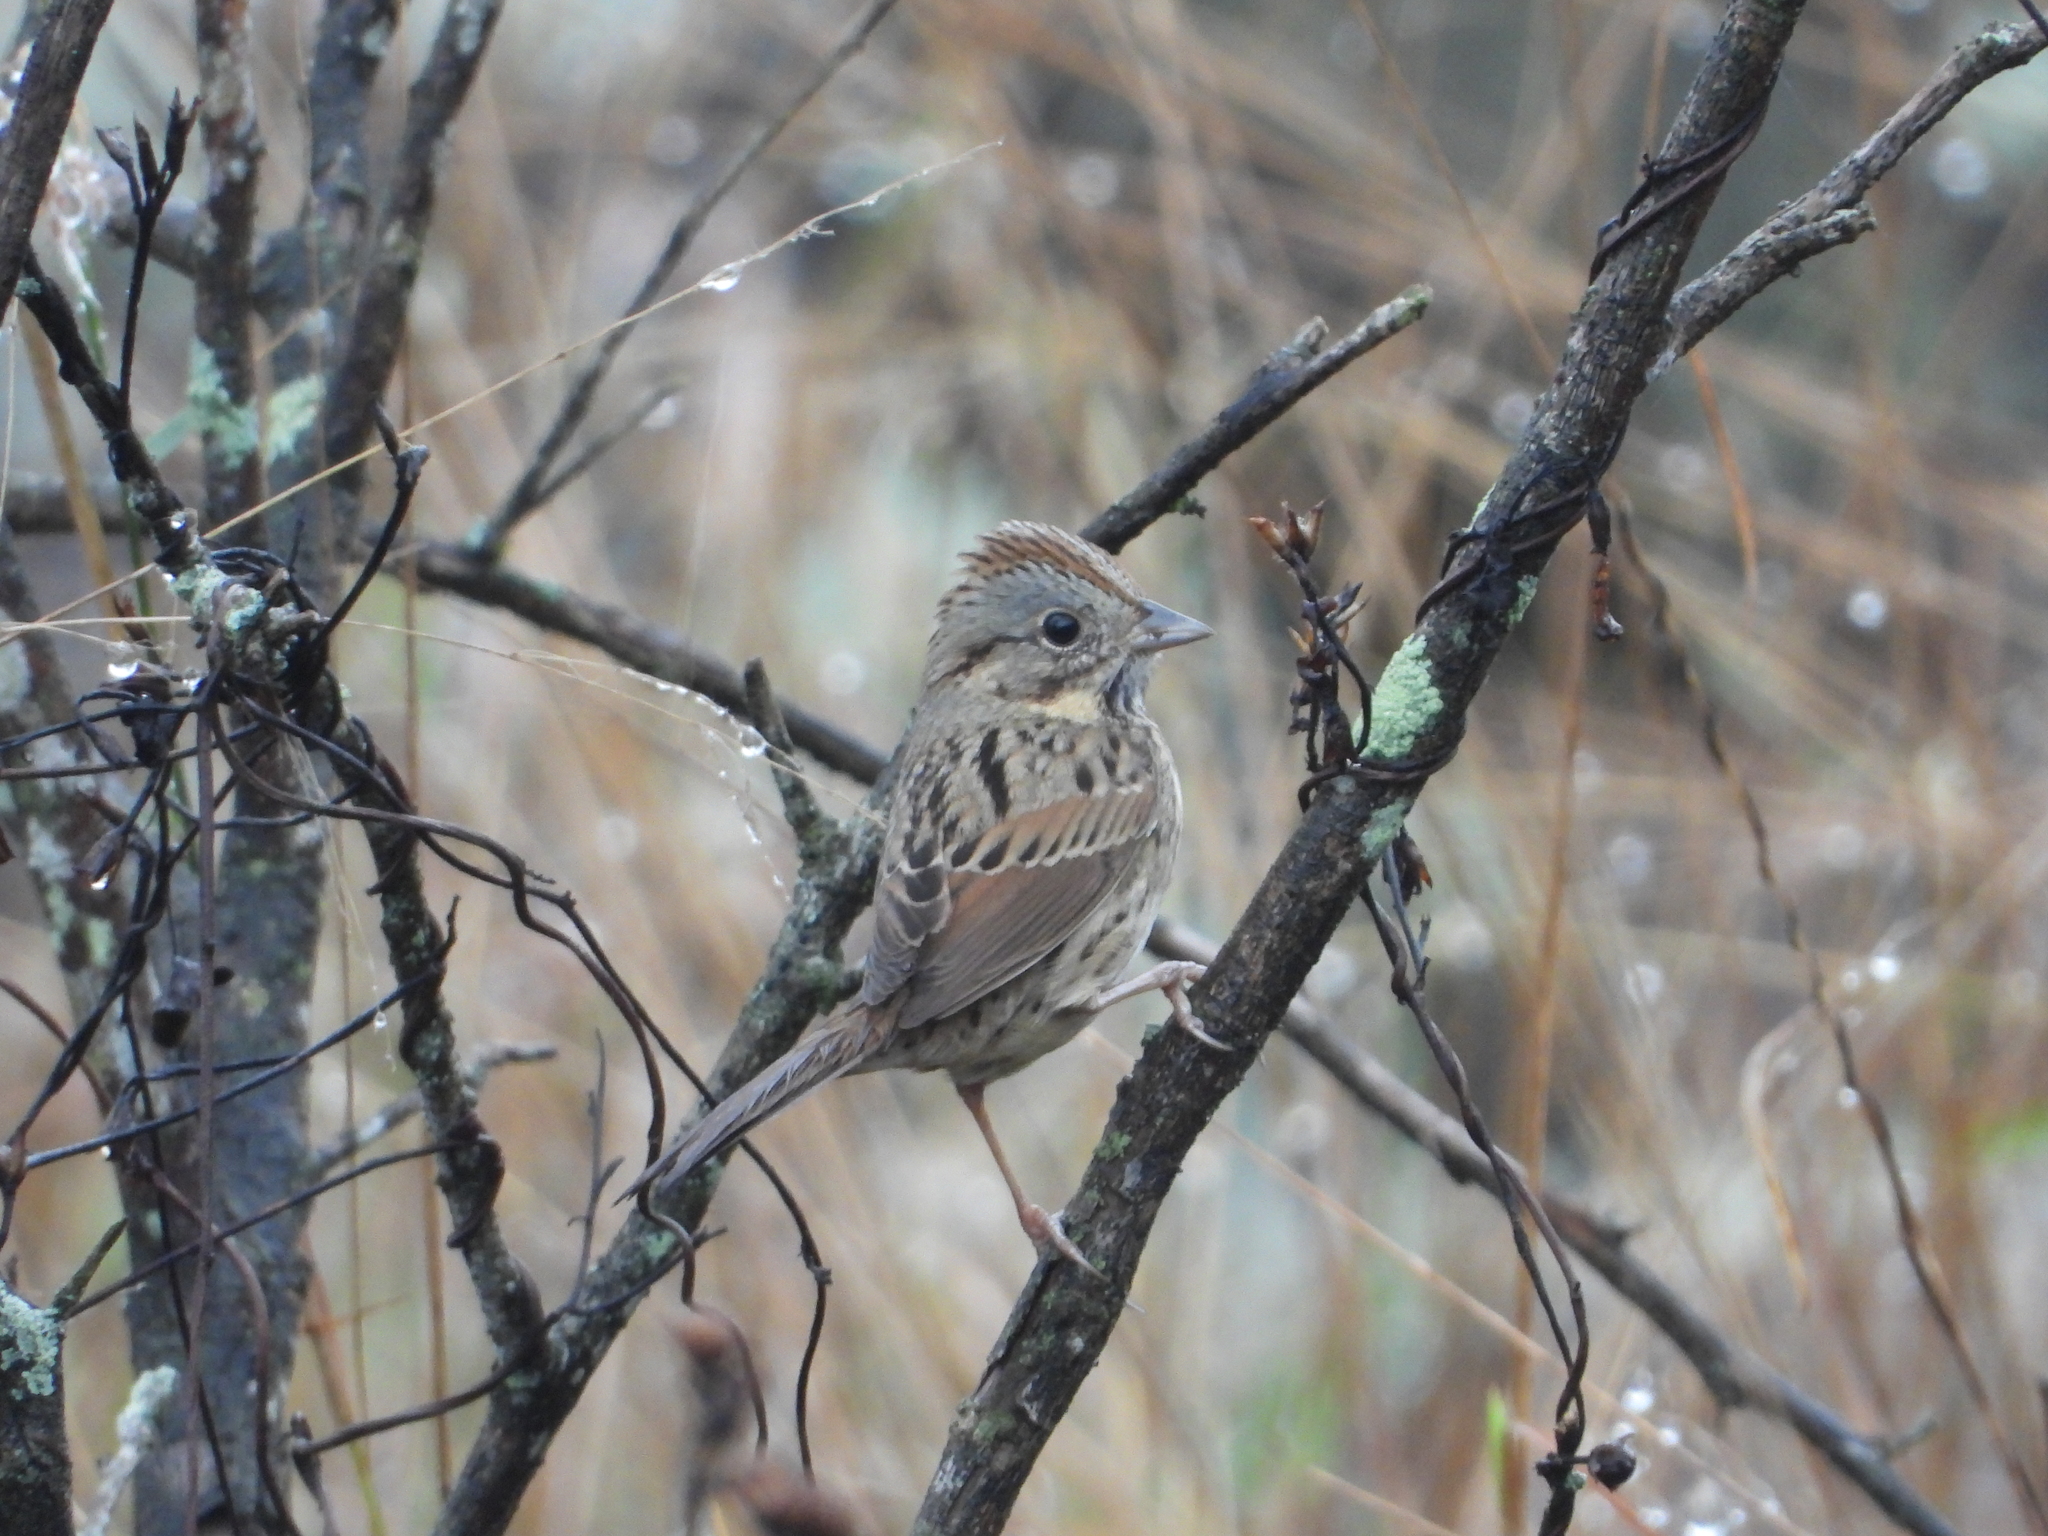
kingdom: Animalia
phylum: Chordata
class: Aves
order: Passeriformes
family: Passerellidae
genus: Melospiza
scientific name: Melospiza lincolnii
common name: Lincoln's sparrow
